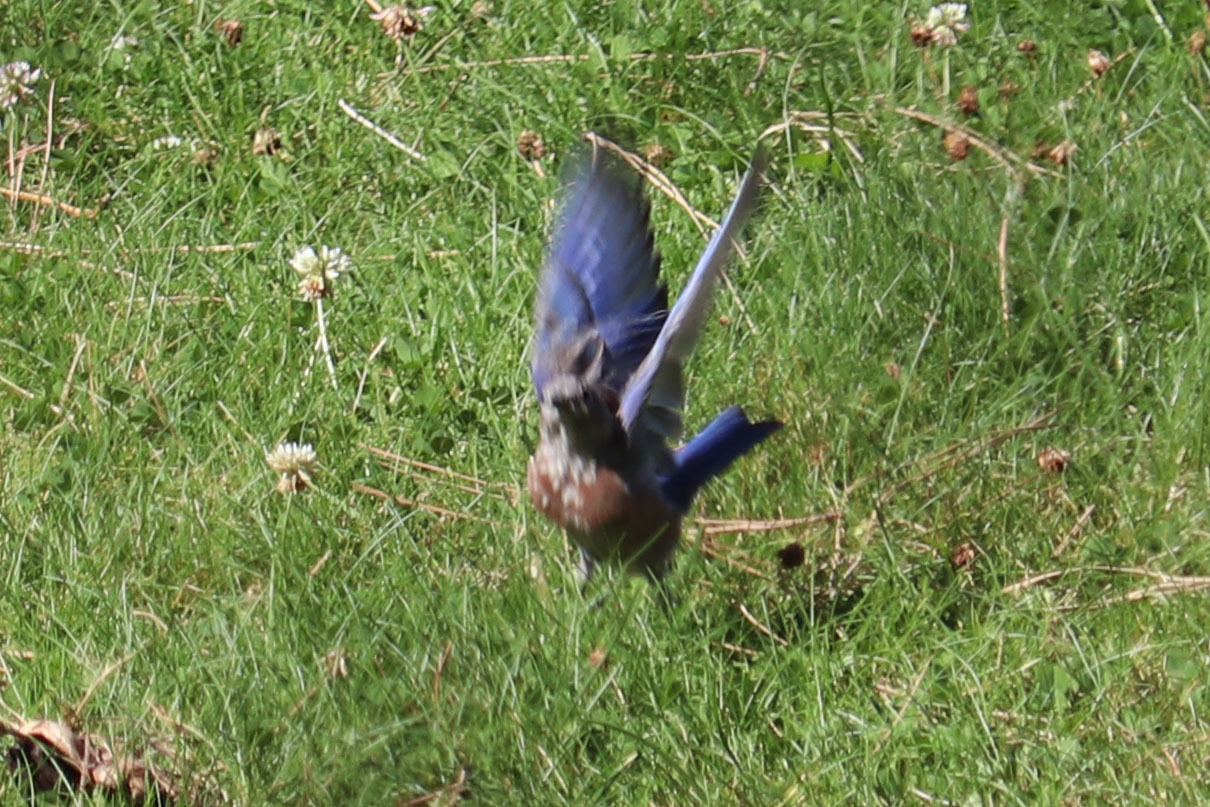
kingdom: Animalia
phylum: Chordata
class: Aves
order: Passeriformes
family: Turdidae
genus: Sialia
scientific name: Sialia mexicana
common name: Western bluebird
